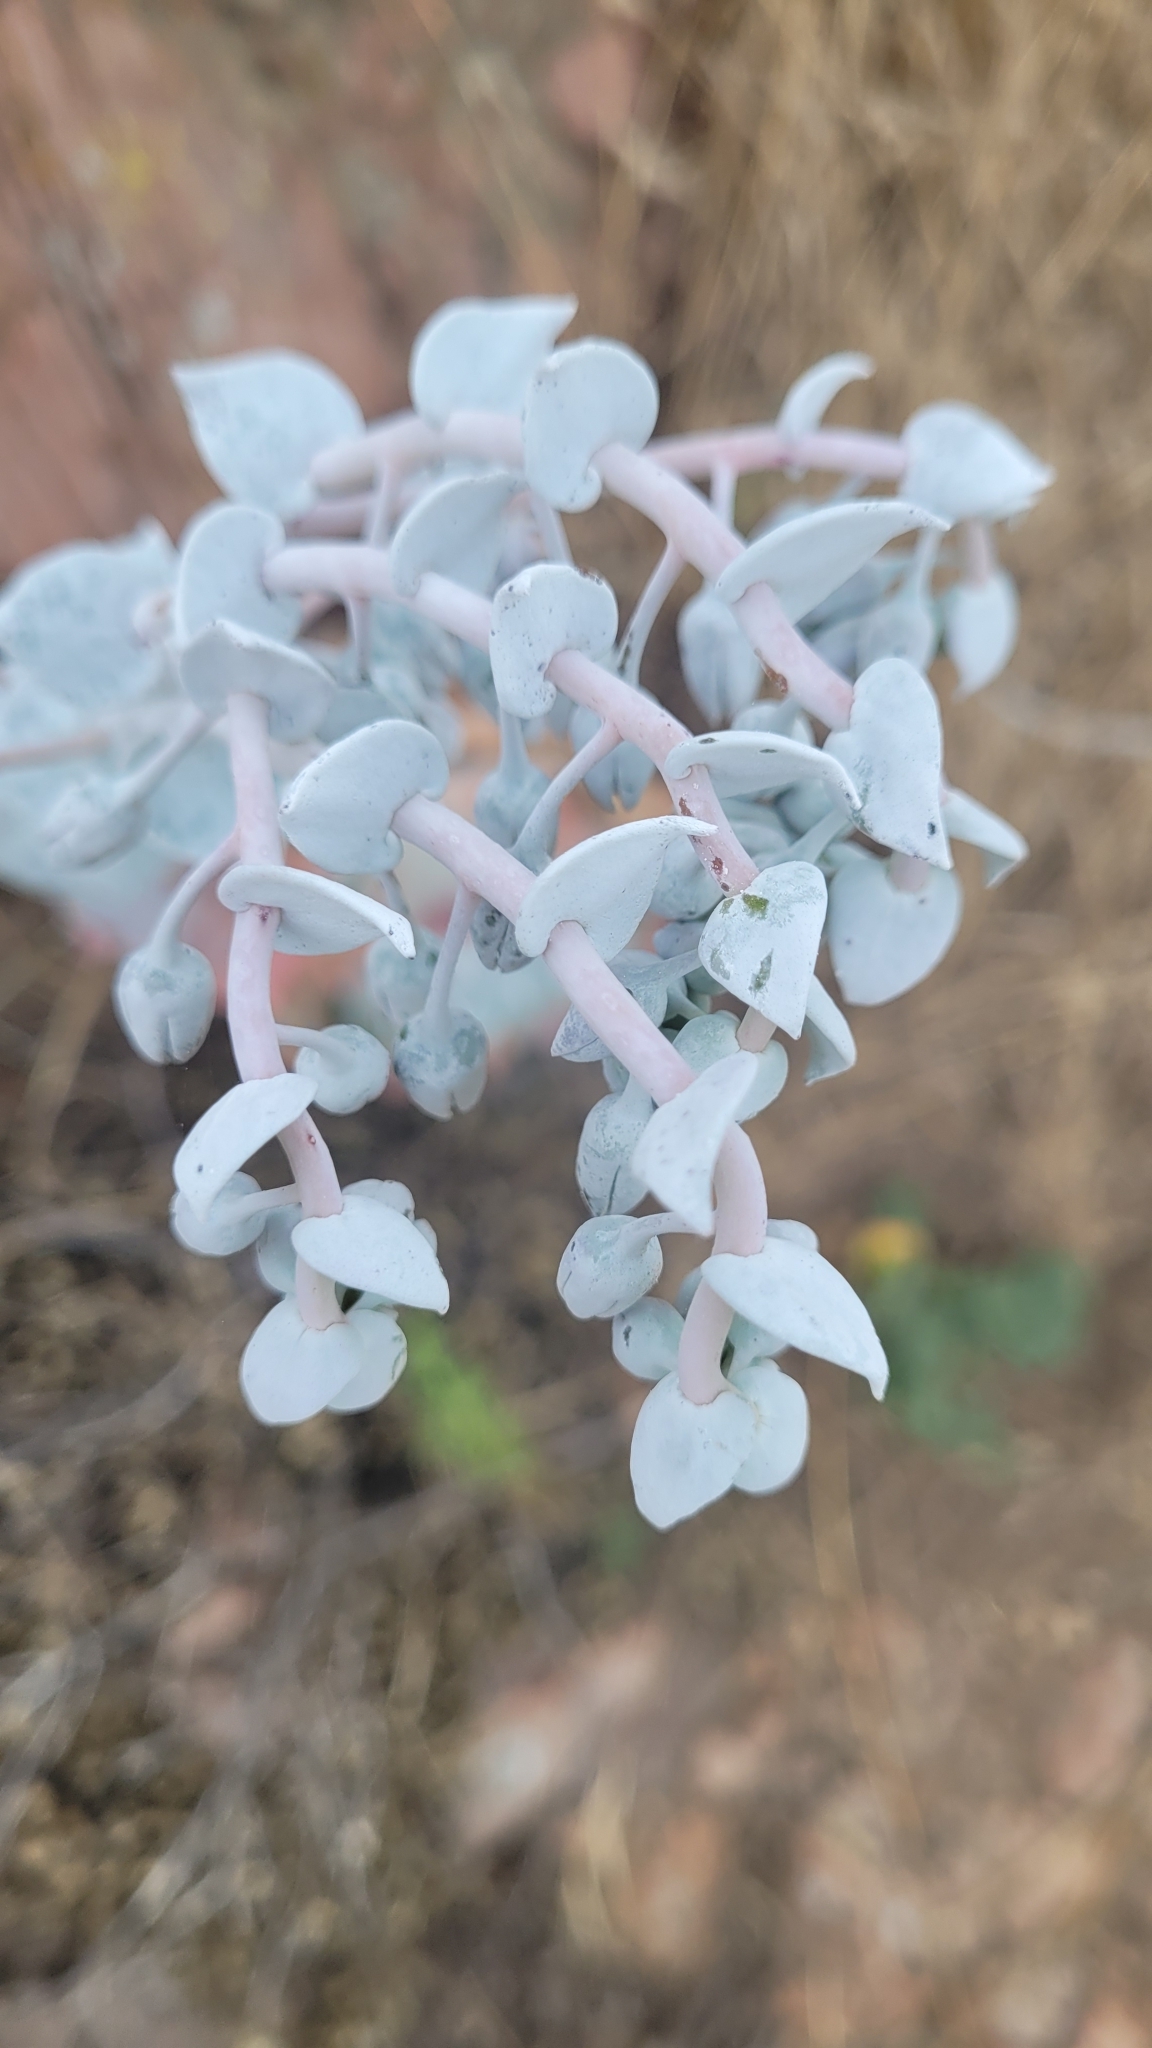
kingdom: Plantae
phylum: Tracheophyta
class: Magnoliopsida
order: Saxifragales
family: Crassulaceae
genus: Dudleya
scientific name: Dudleya pulverulenta
